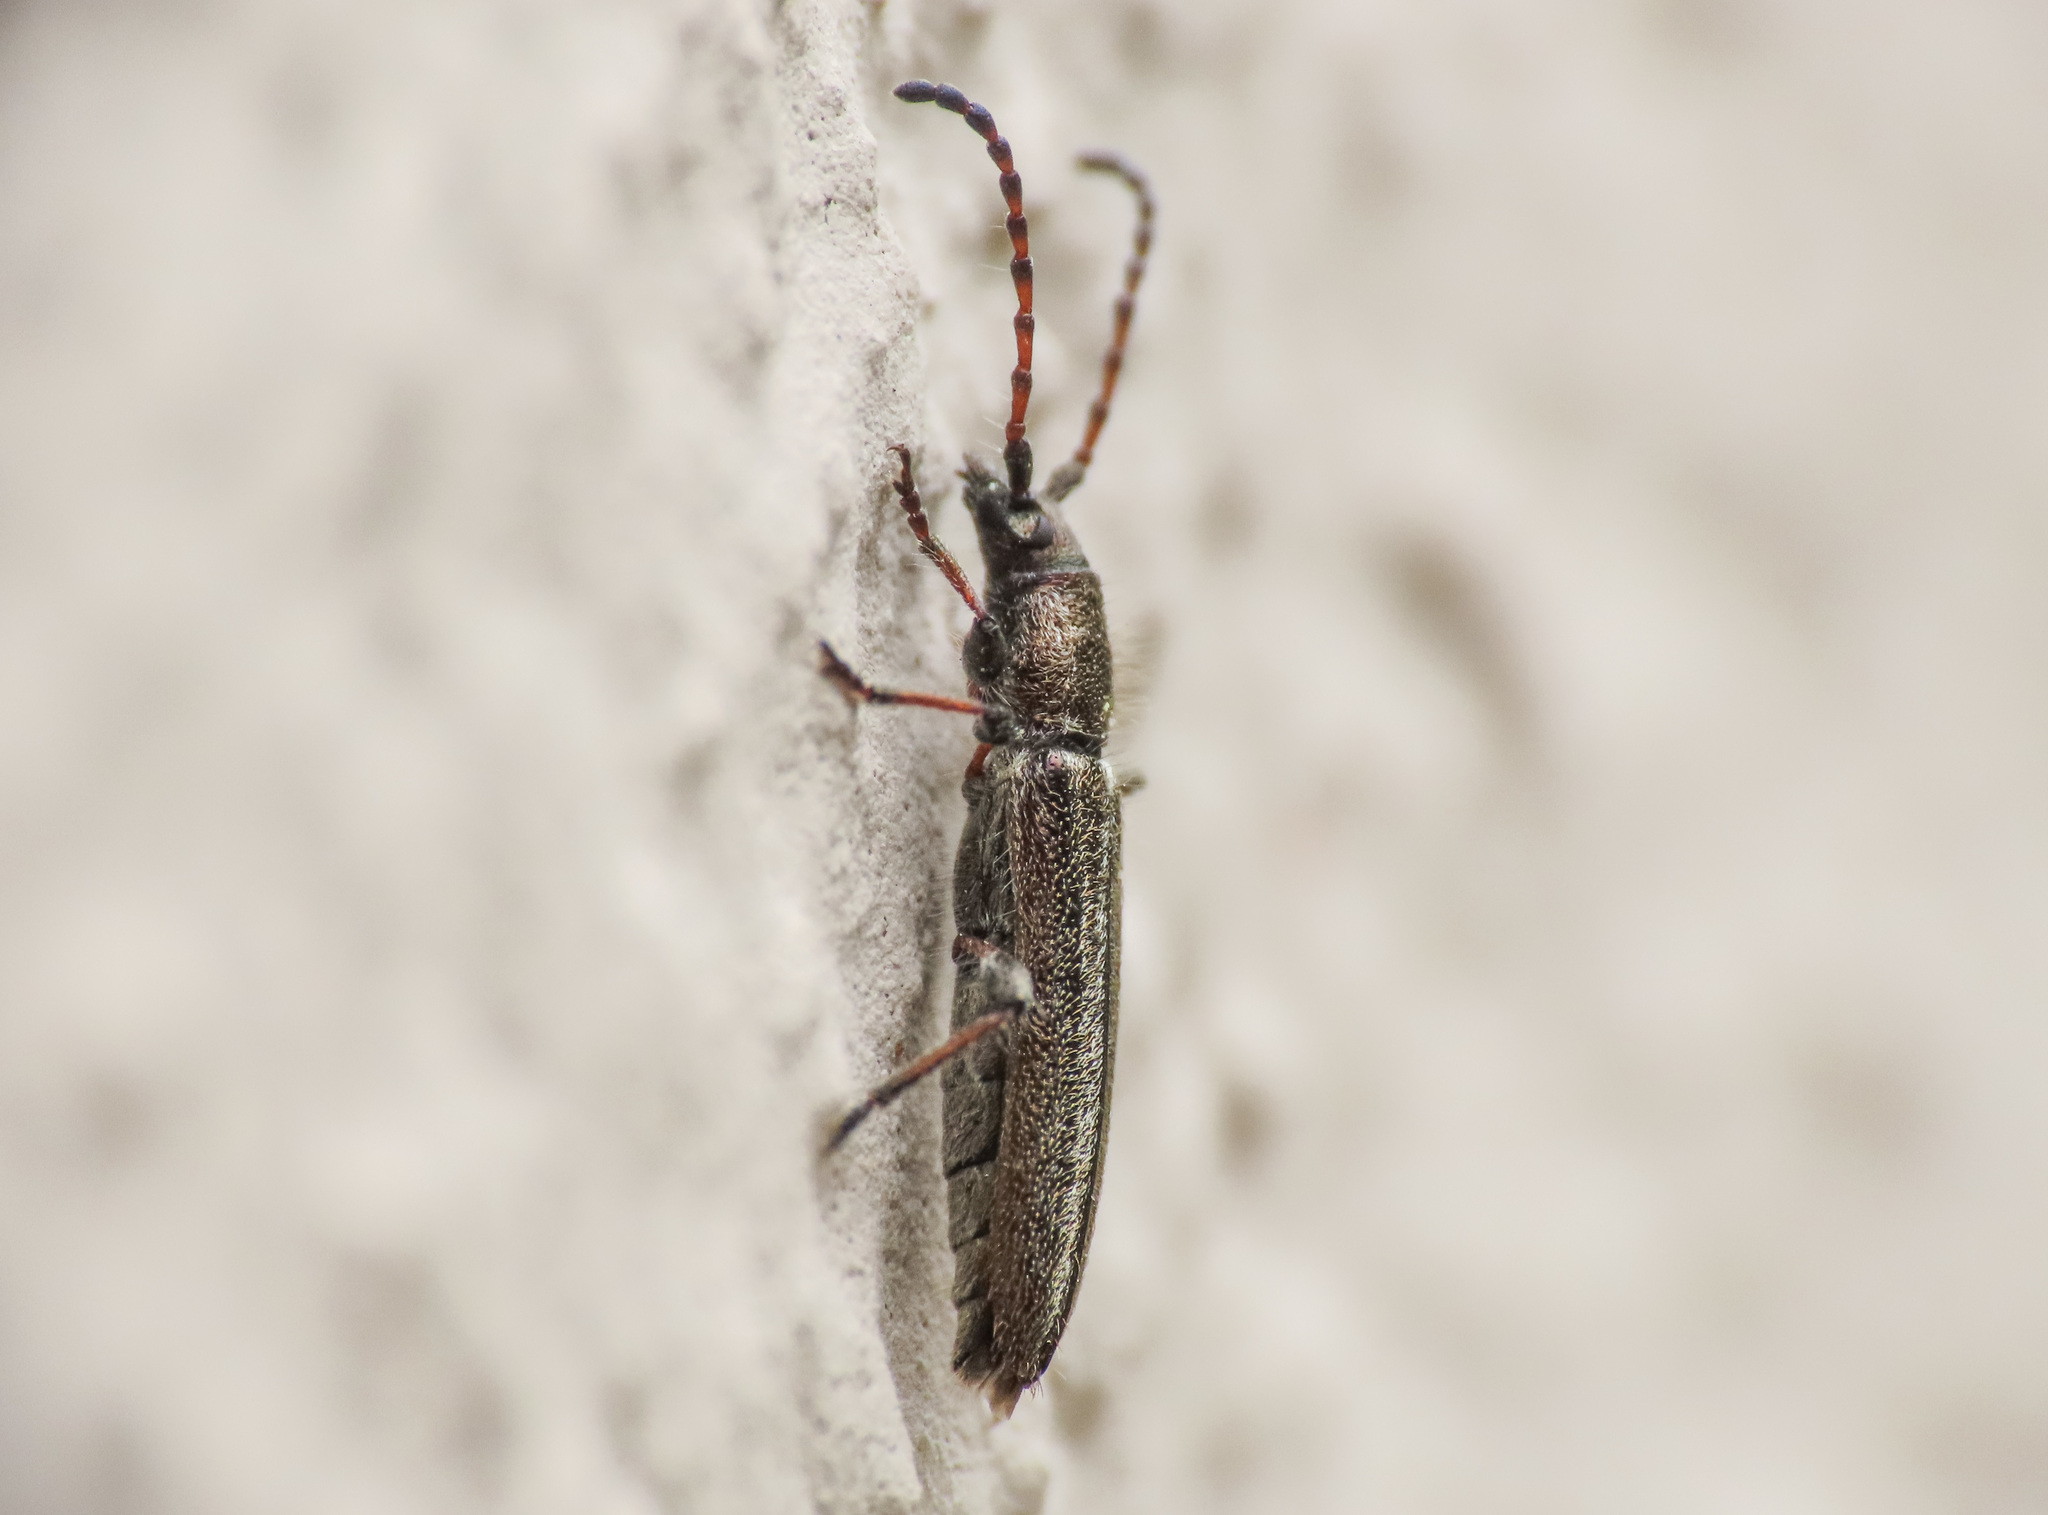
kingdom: Animalia
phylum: Arthropoda
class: Insecta
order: Coleoptera
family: Cerambycidae
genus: Deilus
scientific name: Deilus fugax
